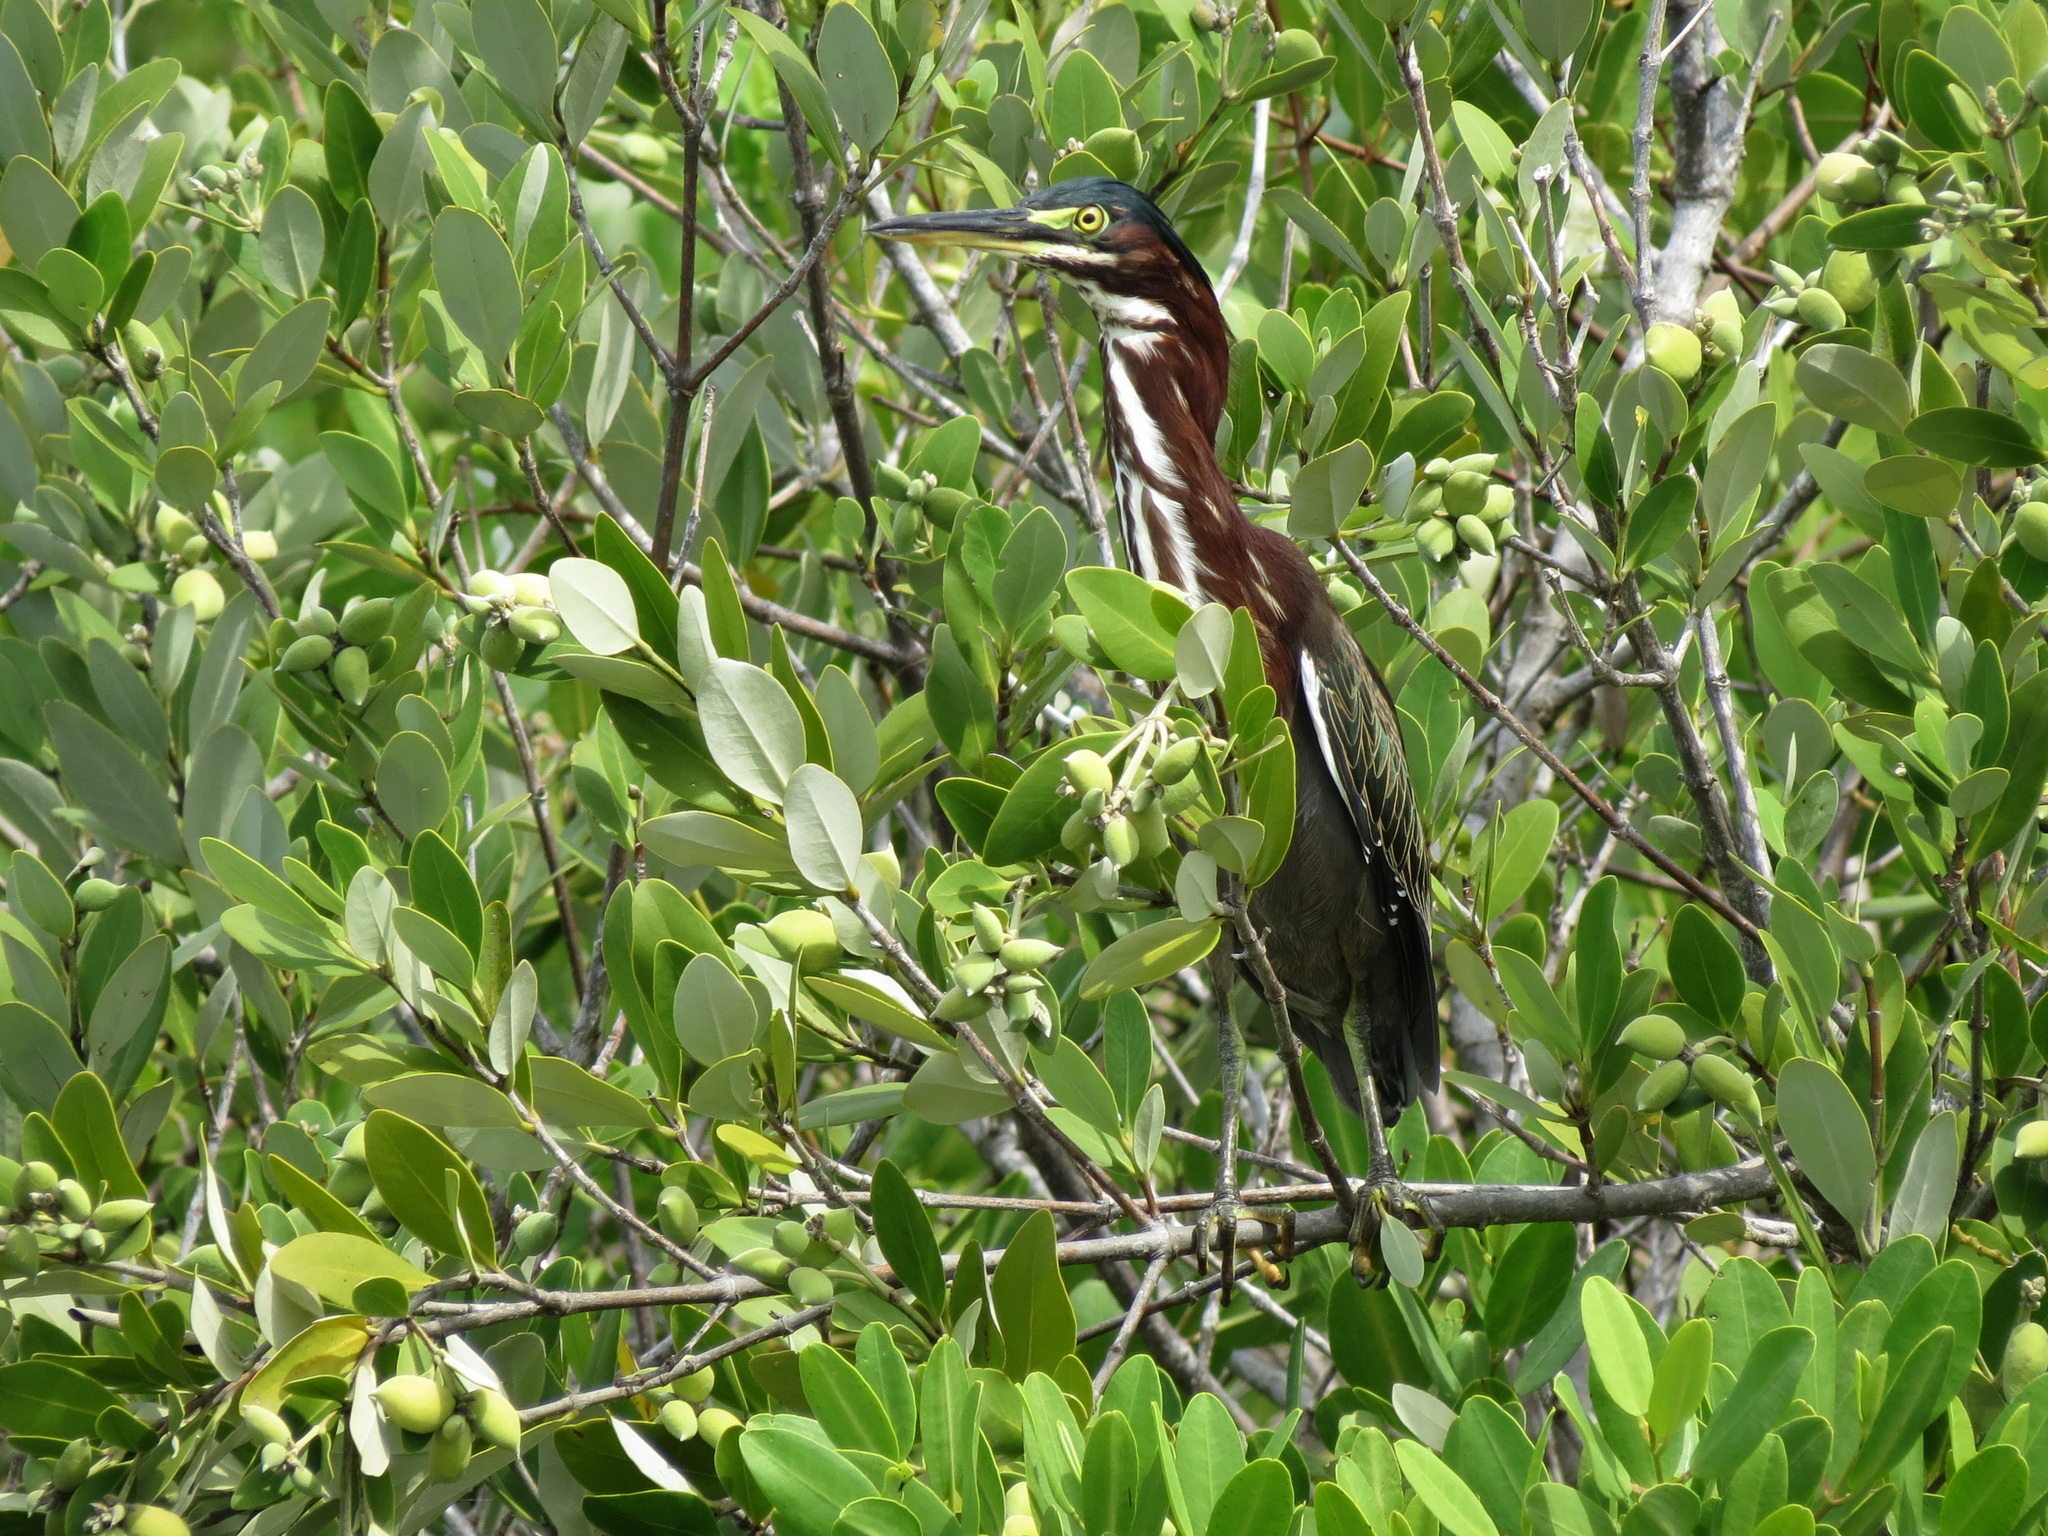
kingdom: Animalia
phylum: Chordata
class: Aves
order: Pelecaniformes
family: Ardeidae
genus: Butorides
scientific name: Butorides virescens
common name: Green heron
